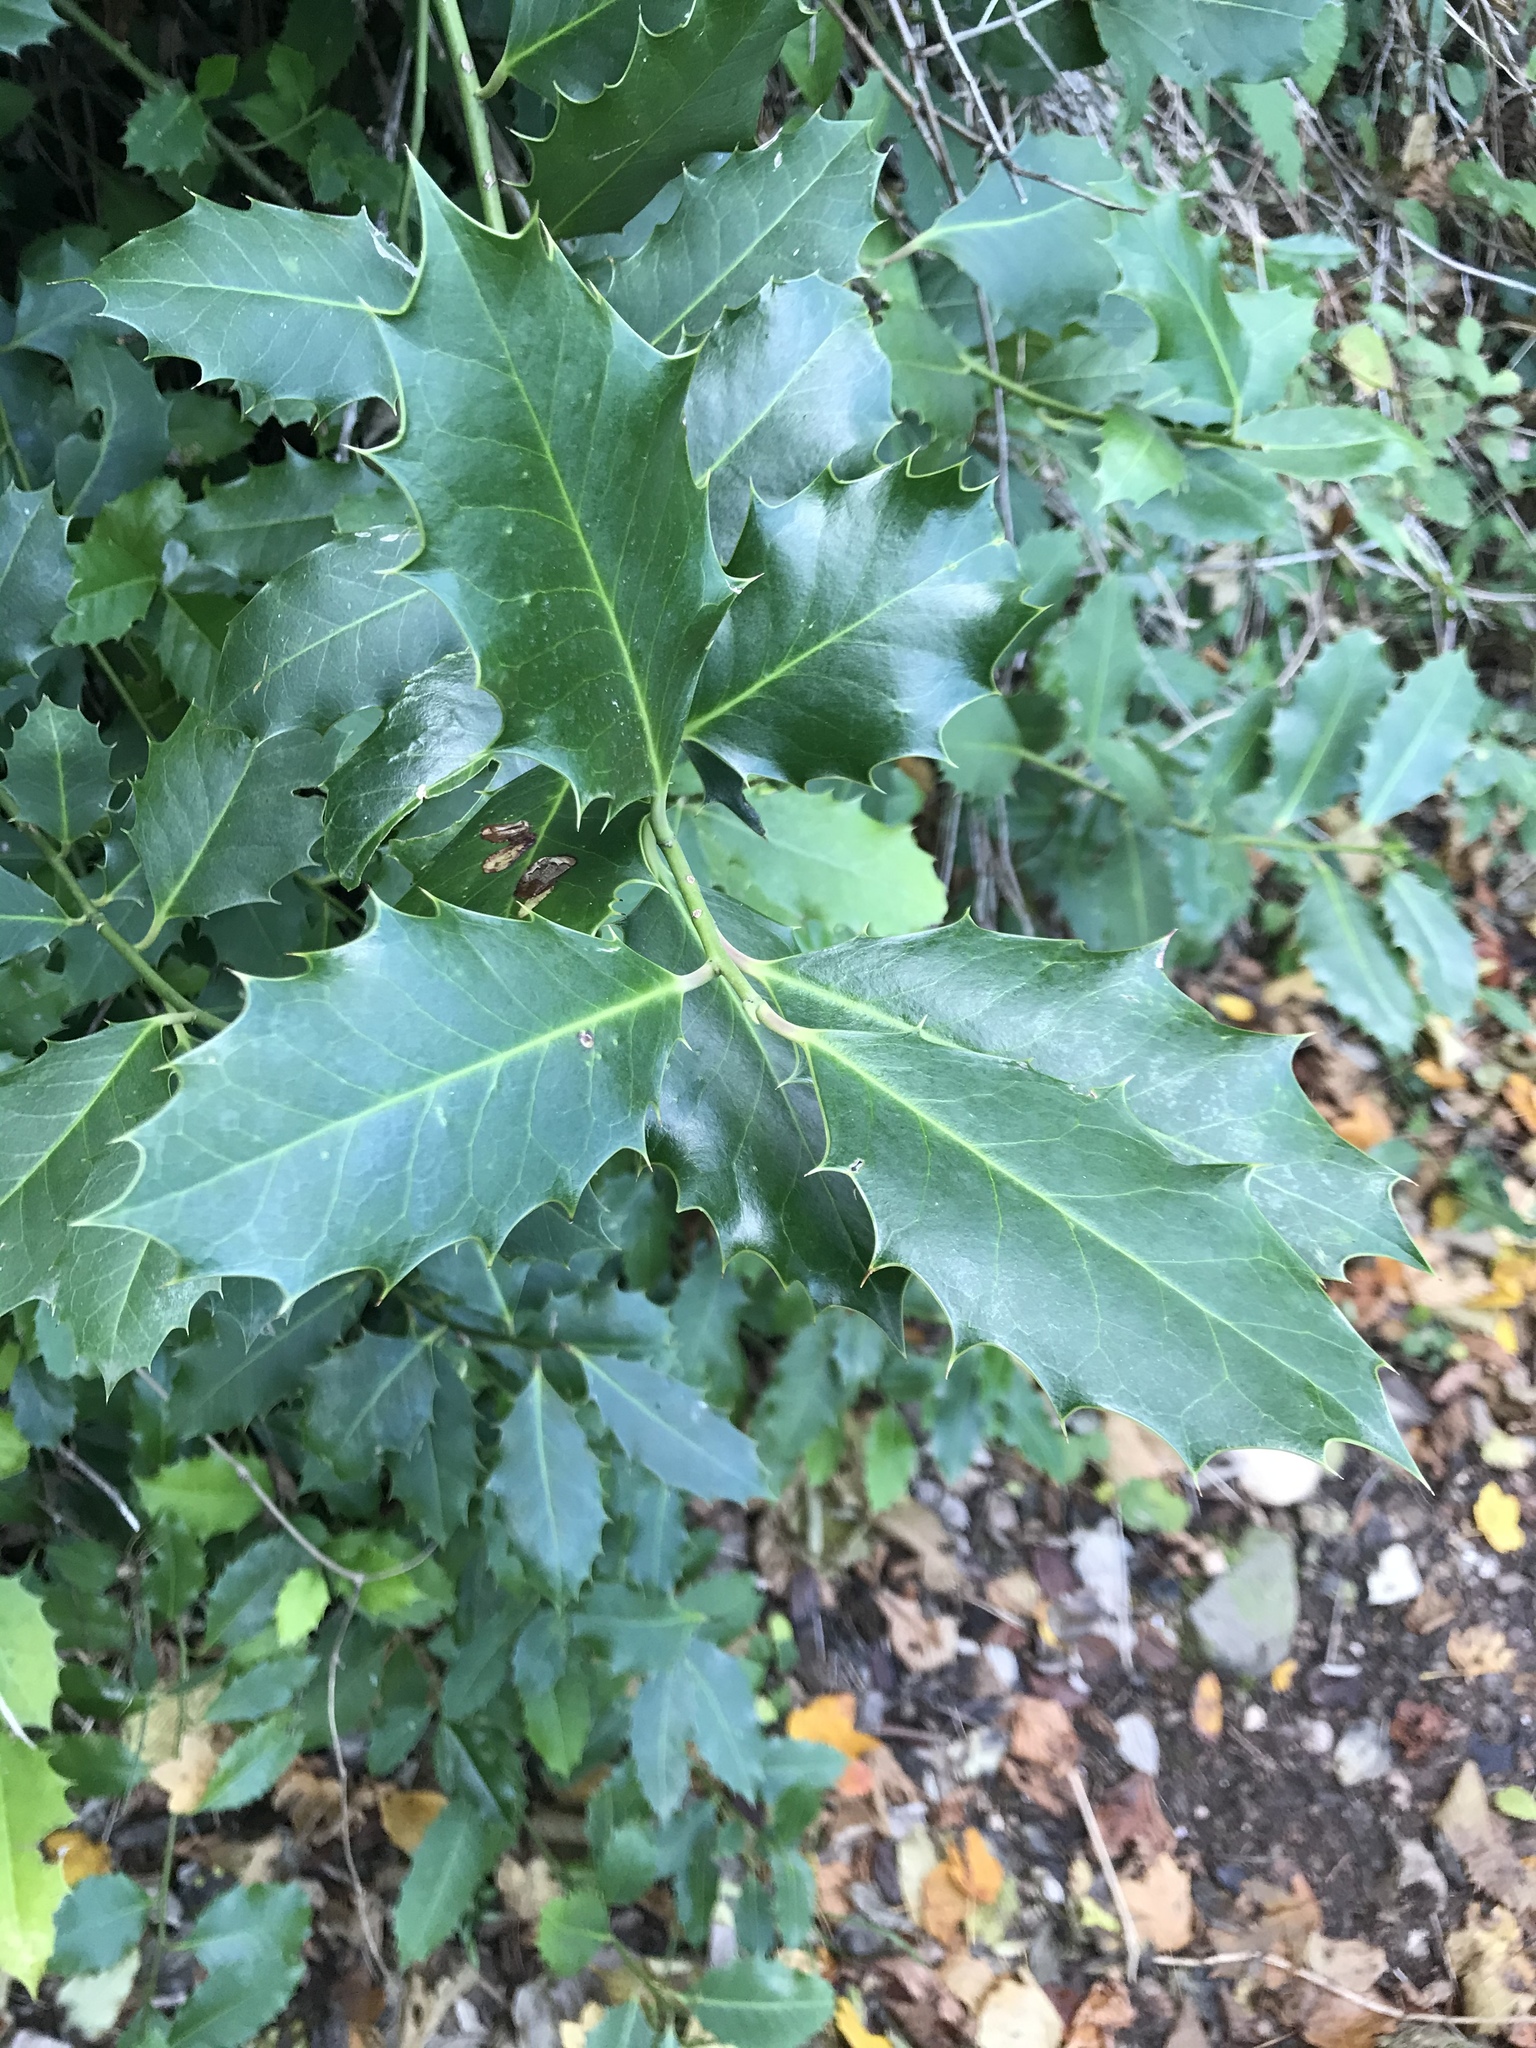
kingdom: Plantae
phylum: Tracheophyta
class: Magnoliopsida
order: Aquifoliales
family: Aquifoliaceae
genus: Ilex
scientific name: Ilex aquifolium
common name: English holly
